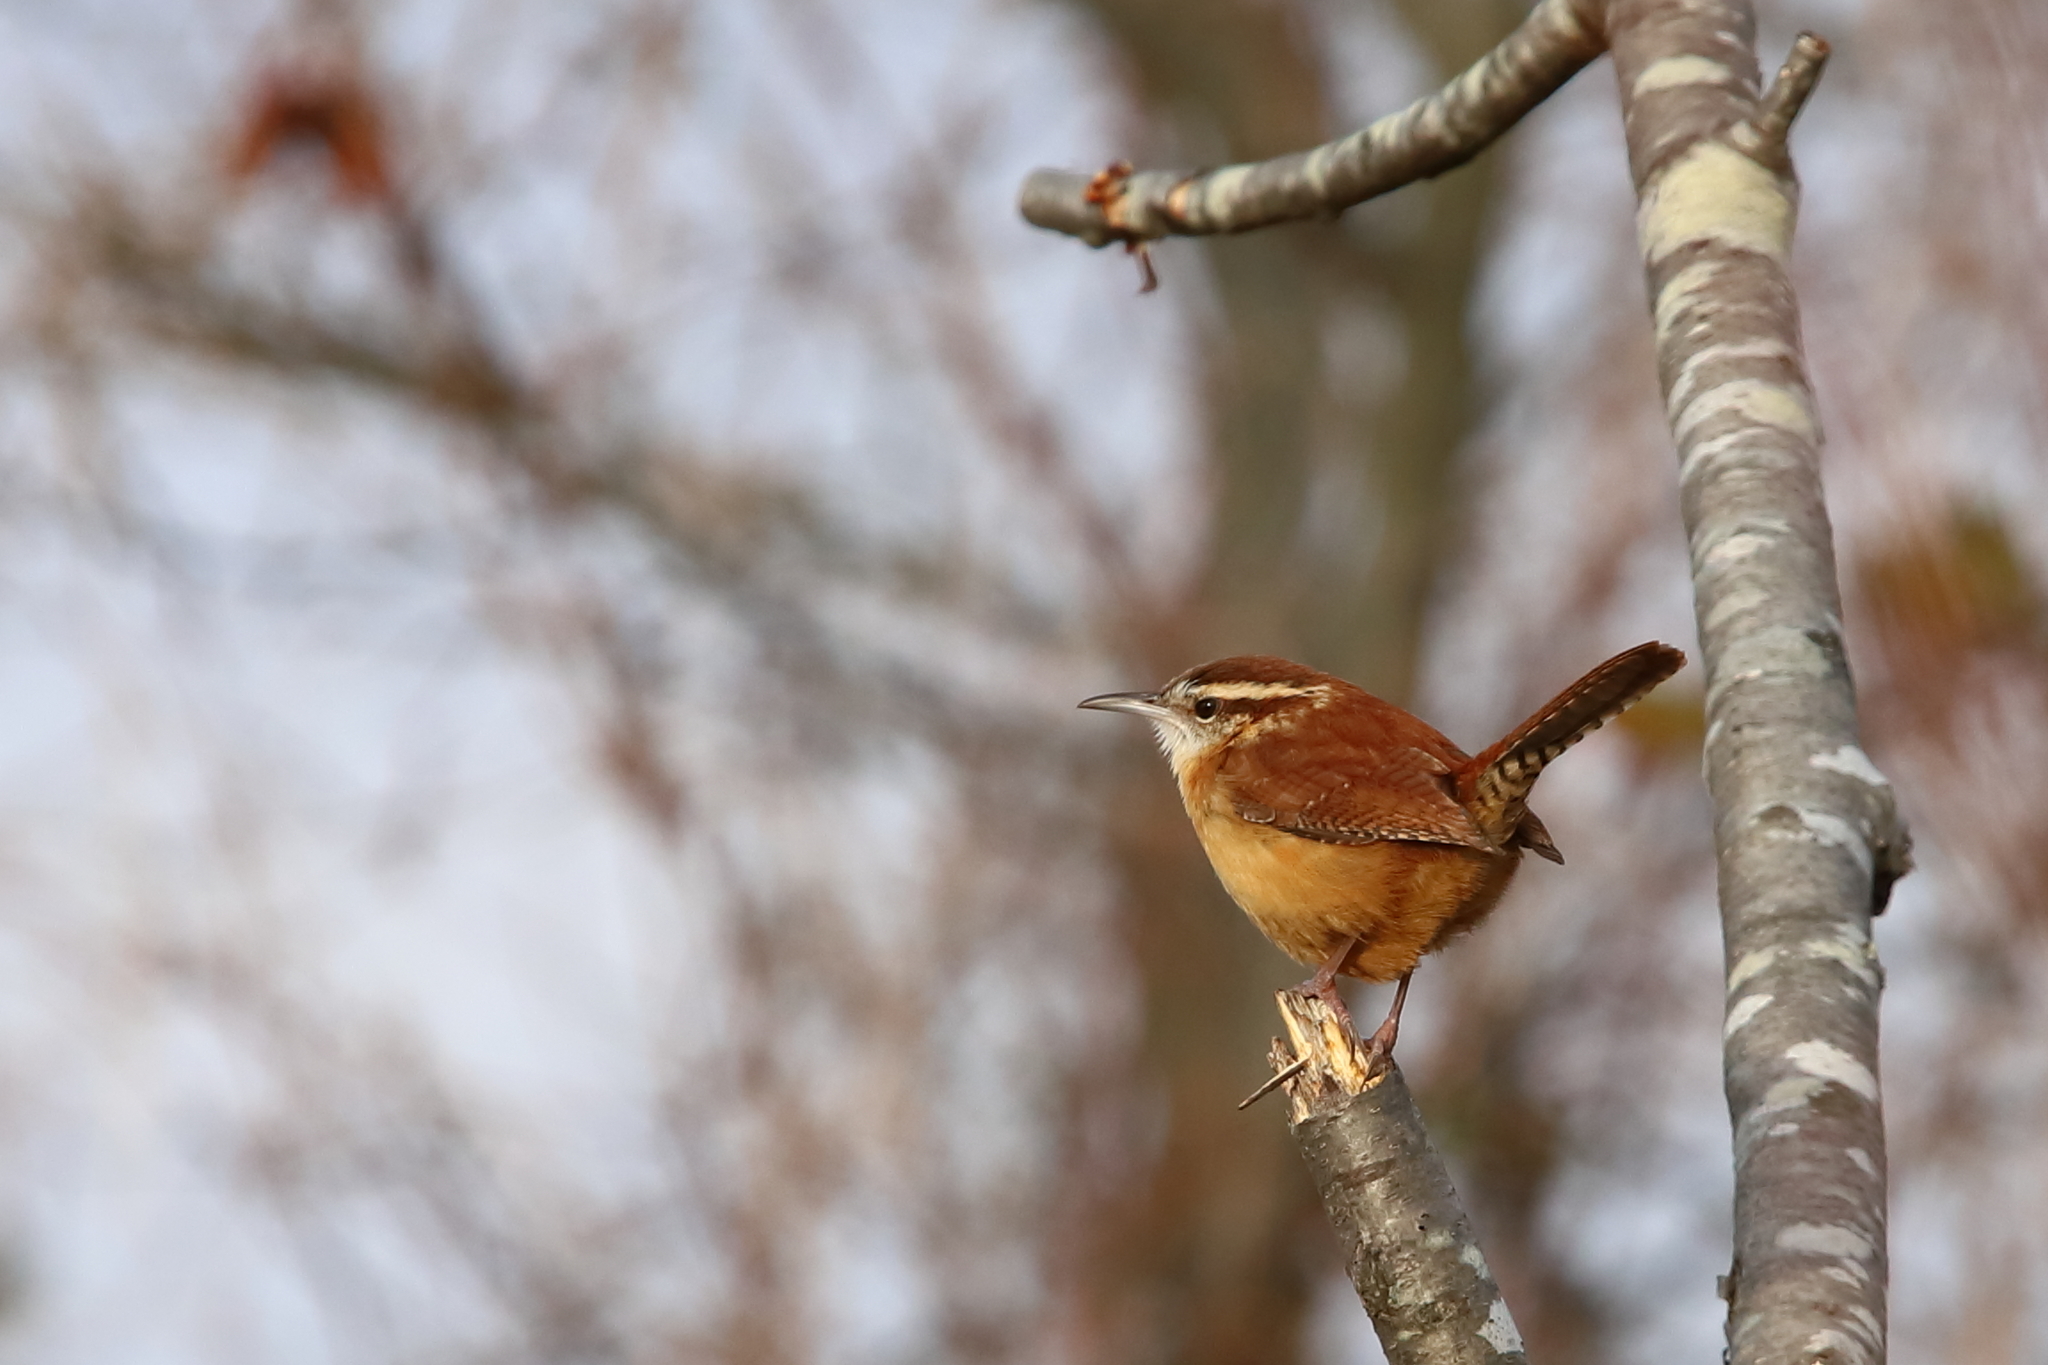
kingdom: Animalia
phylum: Chordata
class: Aves
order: Passeriformes
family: Troglodytidae
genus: Thryothorus
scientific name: Thryothorus ludovicianus
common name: Carolina wren
